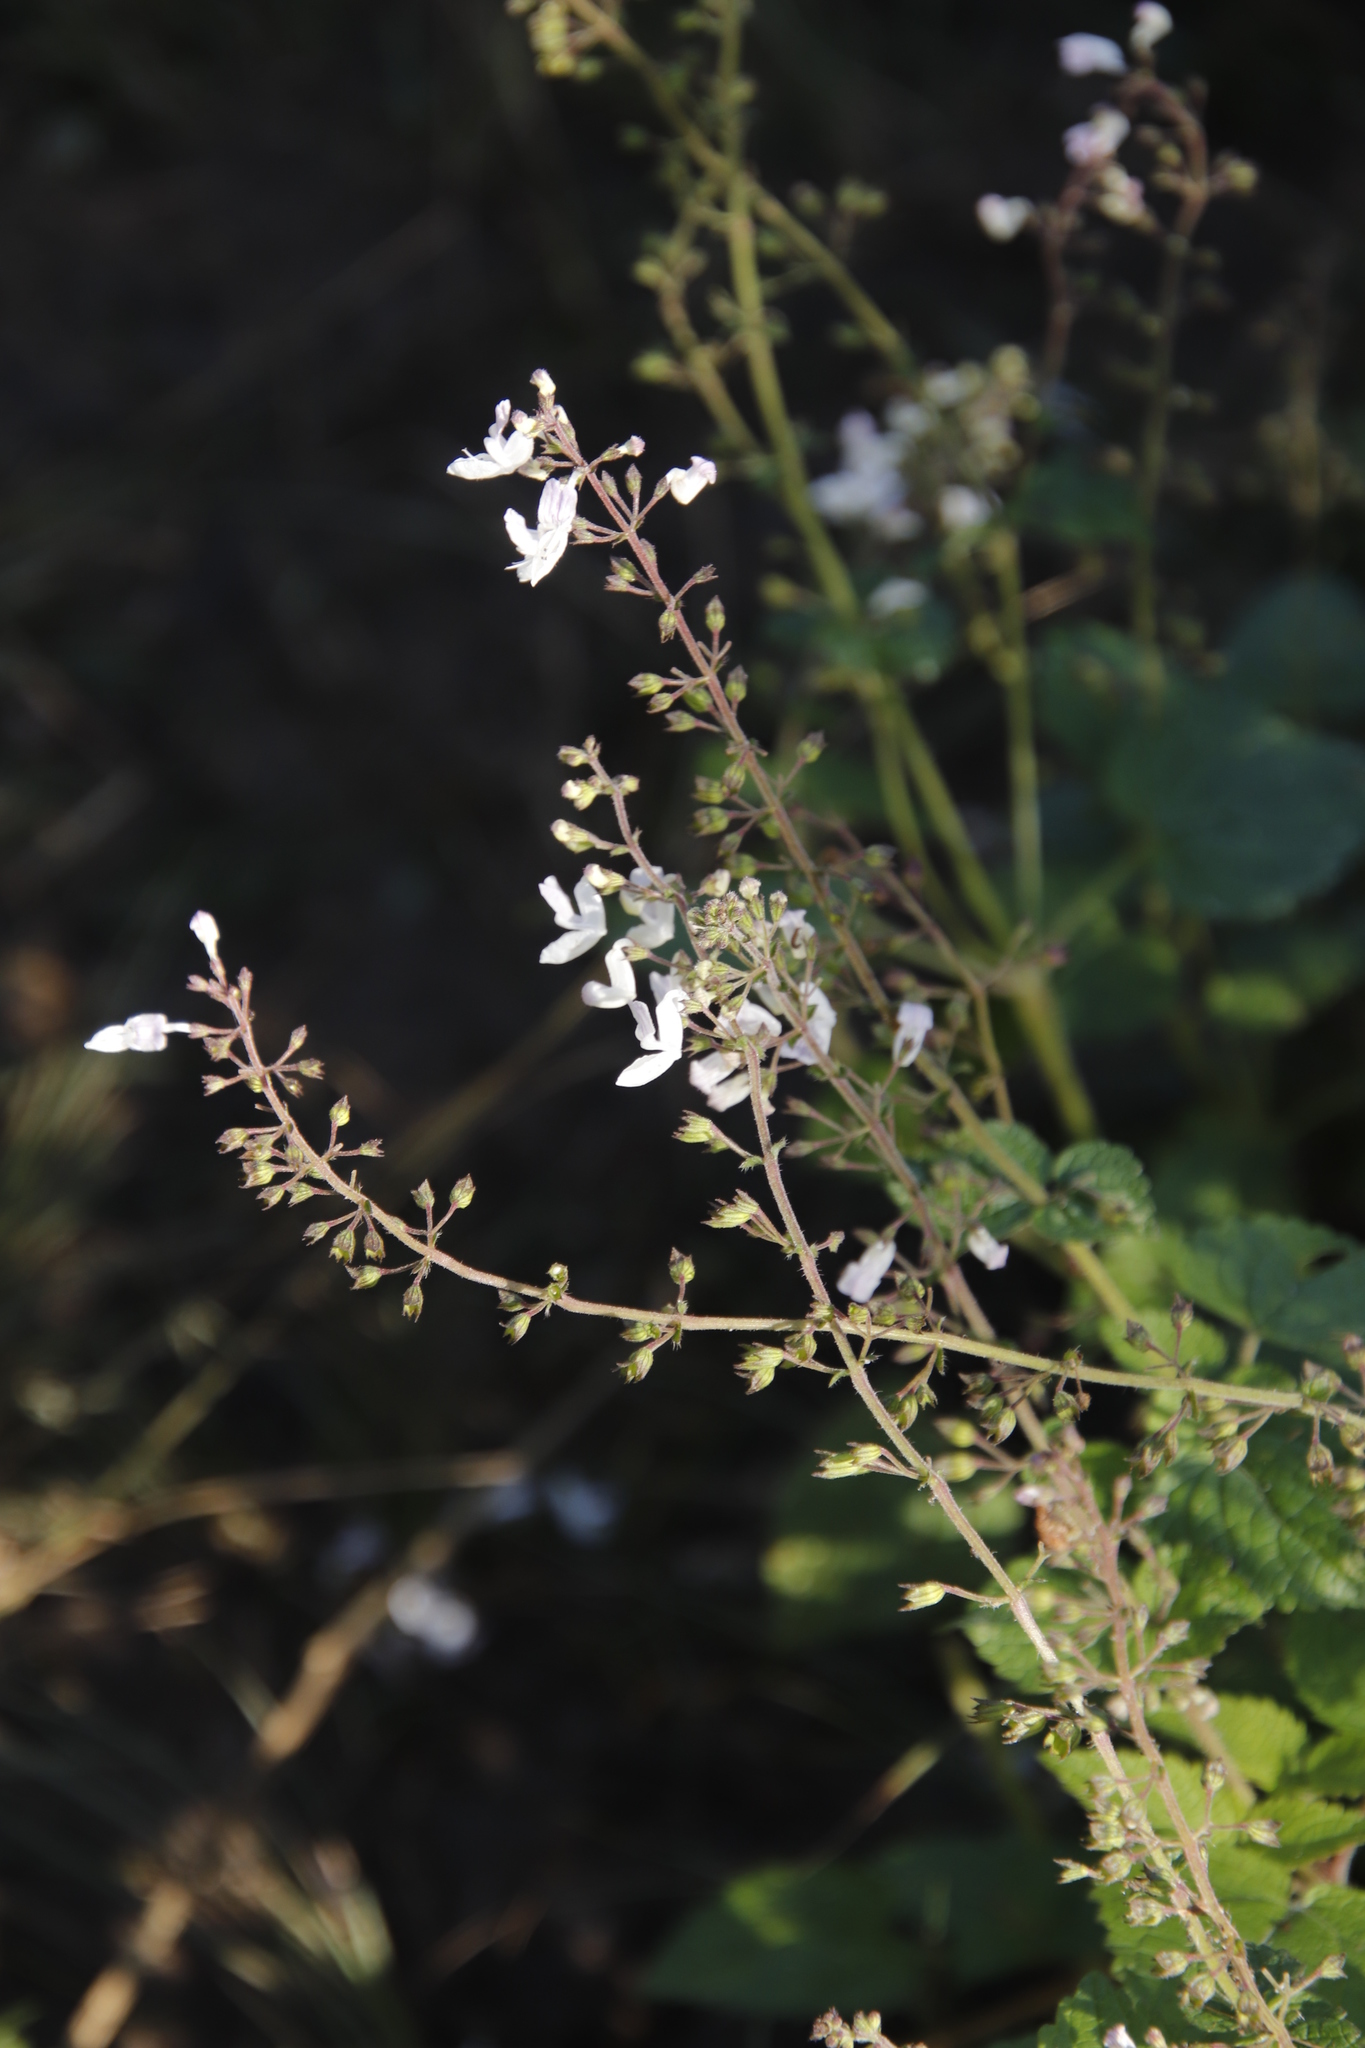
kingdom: Plantae
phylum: Tracheophyta
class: Magnoliopsida
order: Lamiales
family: Lamiaceae
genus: Equilabium
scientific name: Equilabium laxiflorum
